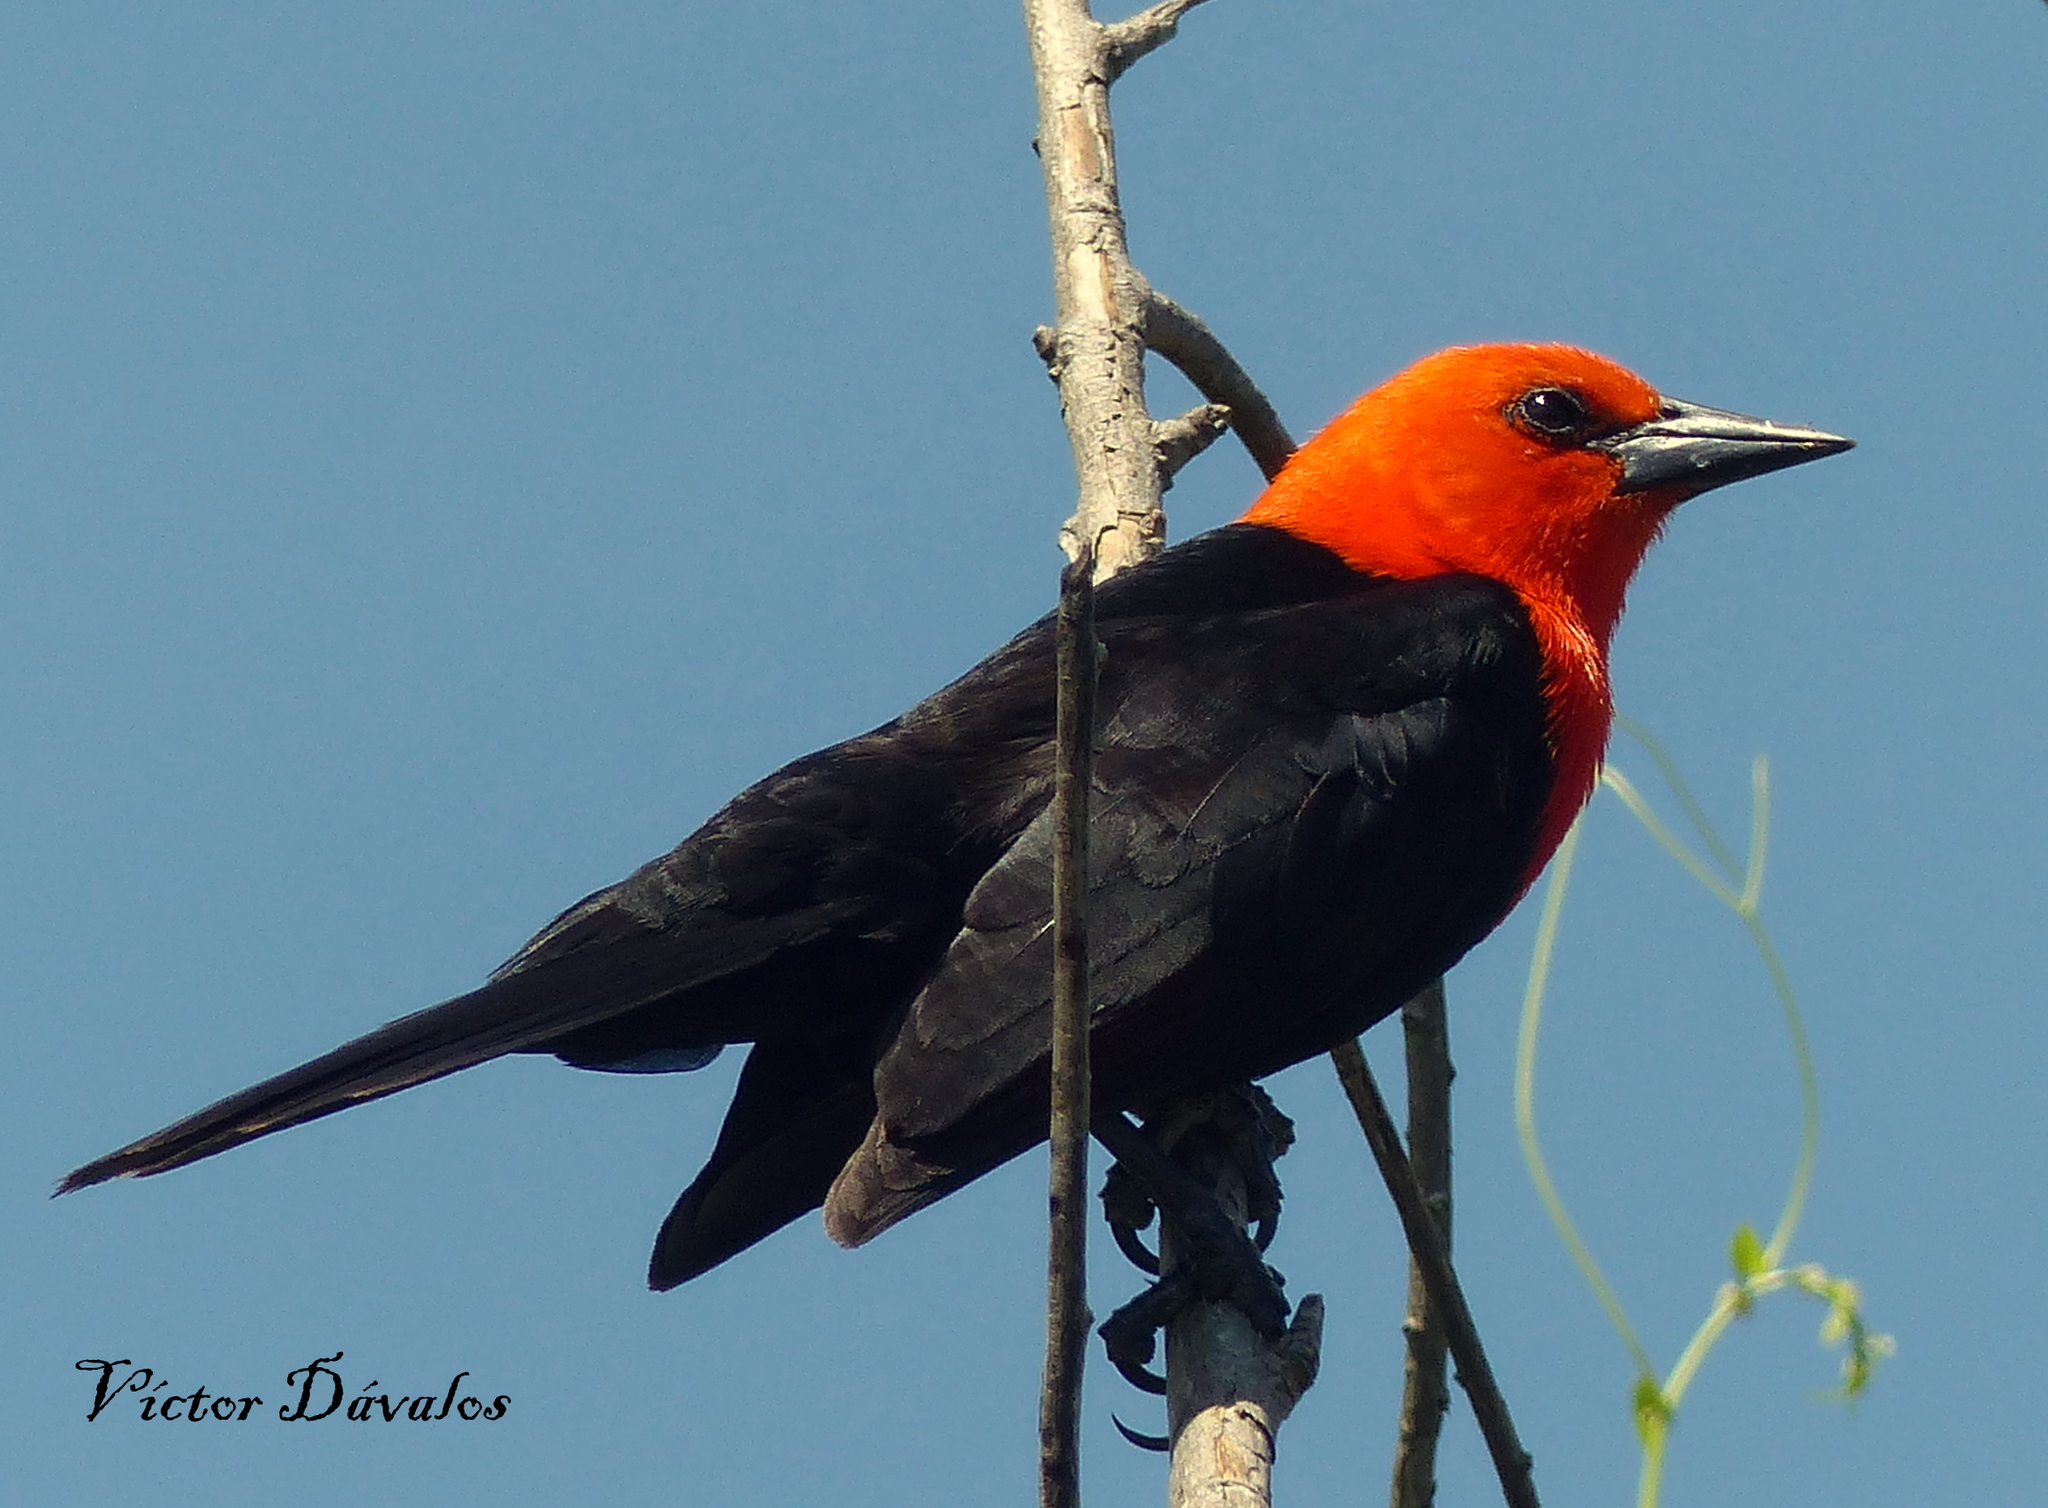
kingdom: Animalia
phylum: Chordata
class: Aves
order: Passeriformes
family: Icteridae
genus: Amblyramphus
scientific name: Amblyramphus holosericeus
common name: Scarlet-headed blackbird
